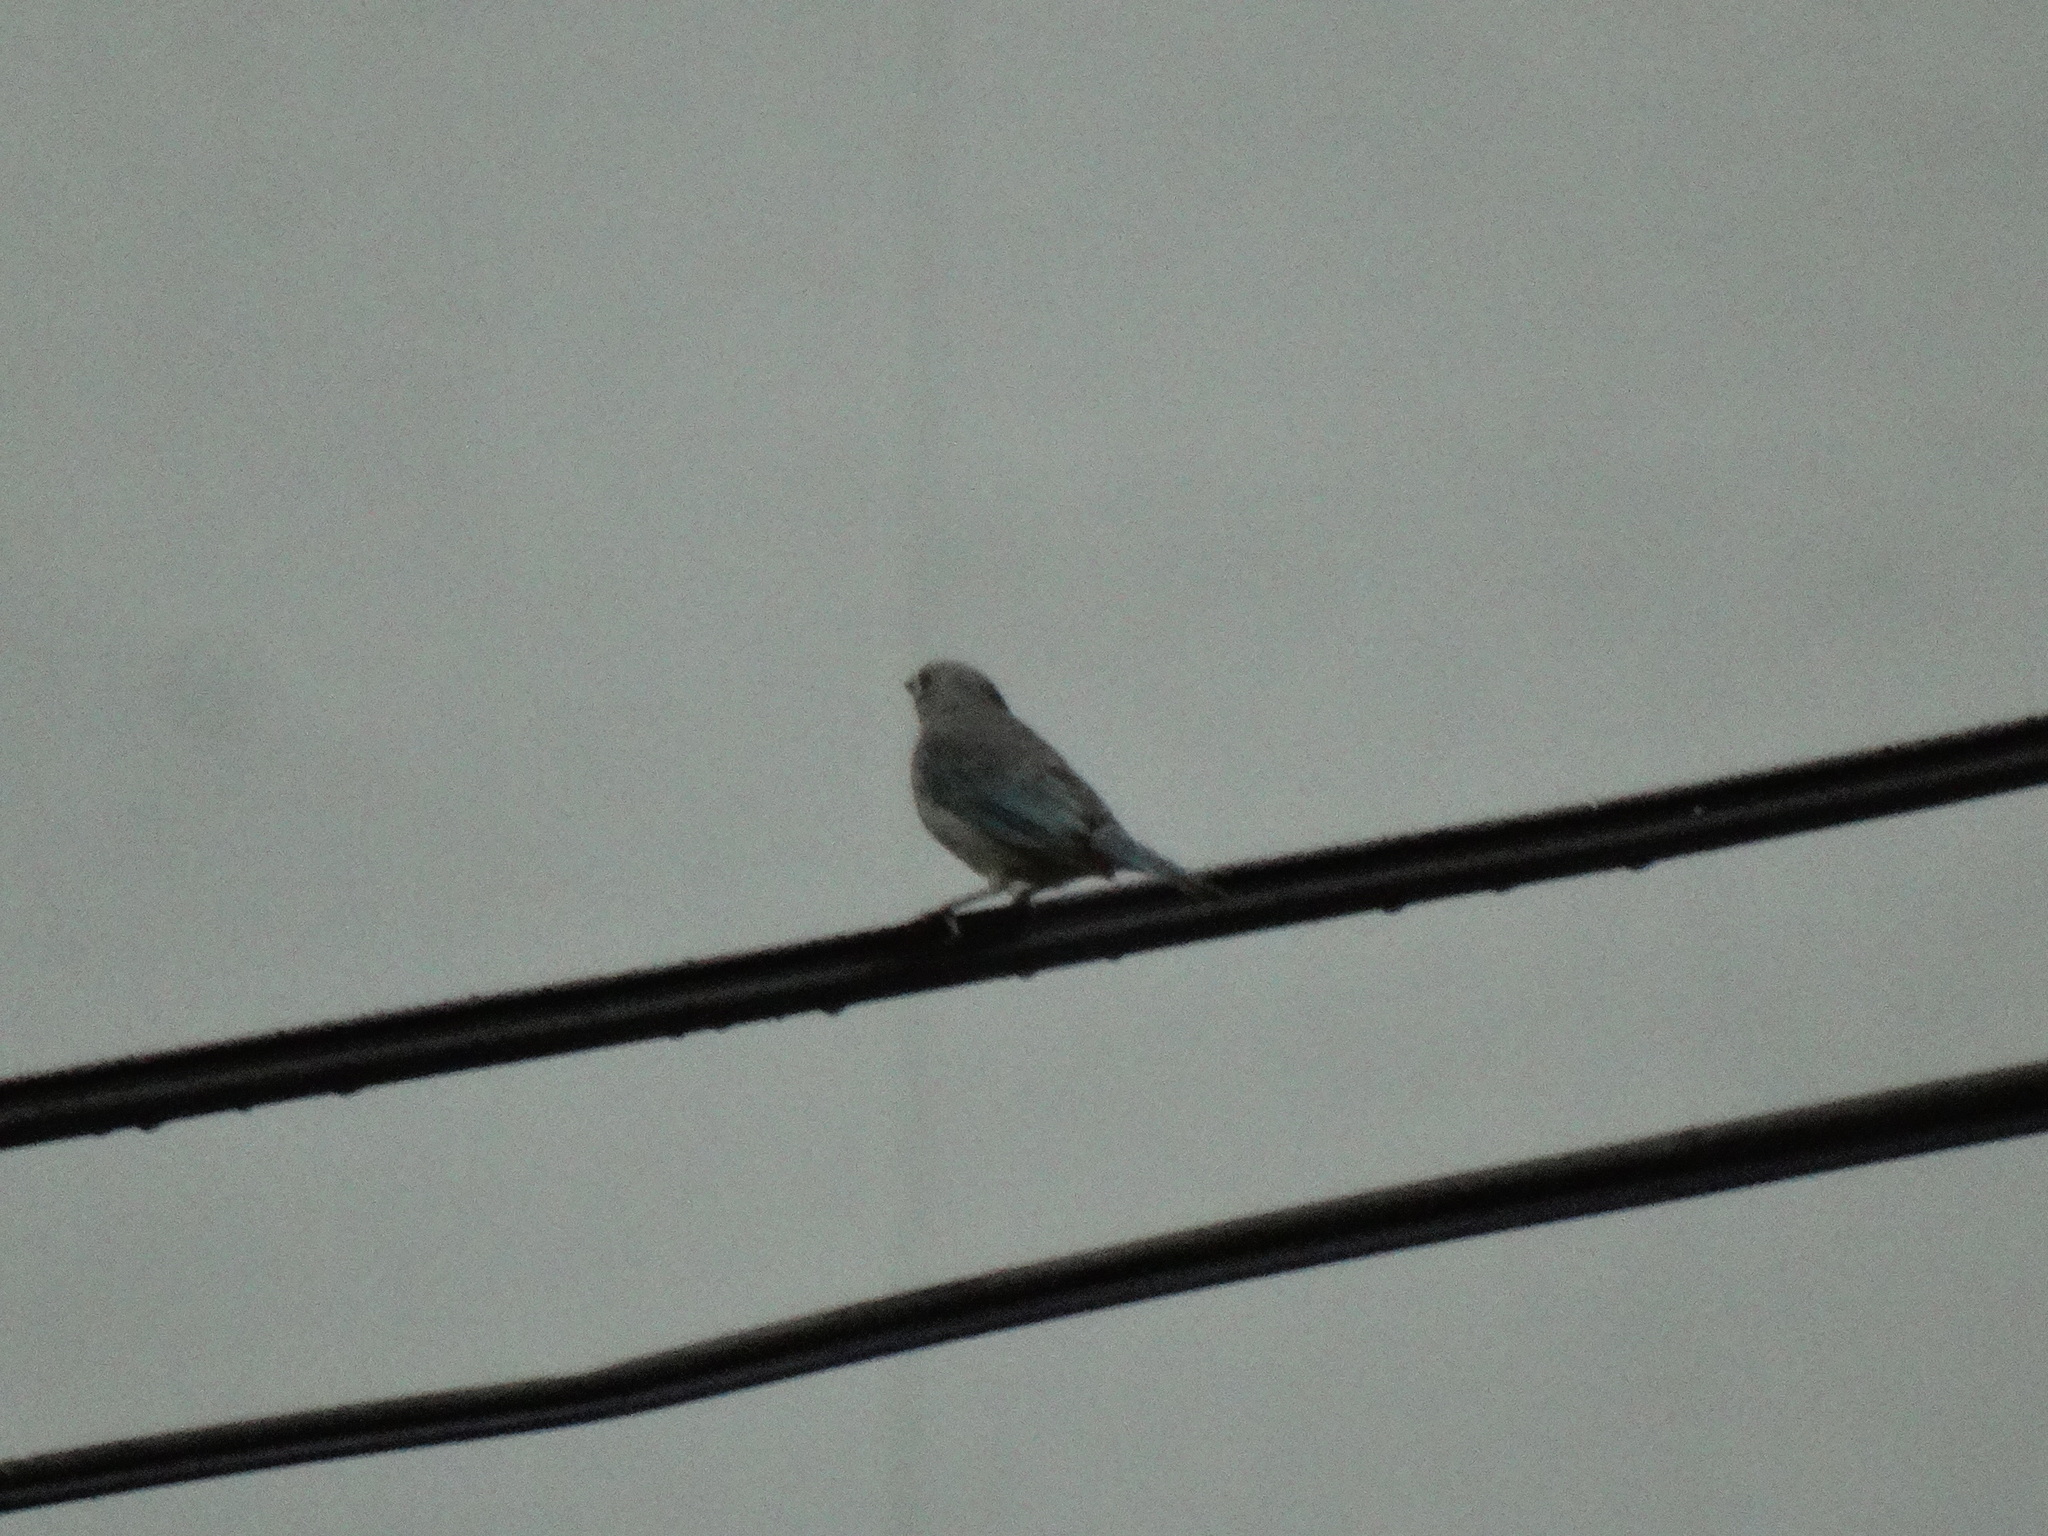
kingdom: Animalia
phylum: Chordata
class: Aves
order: Passeriformes
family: Thraupidae
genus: Thraupis
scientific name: Thraupis sayaca
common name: Sayaca tanager
